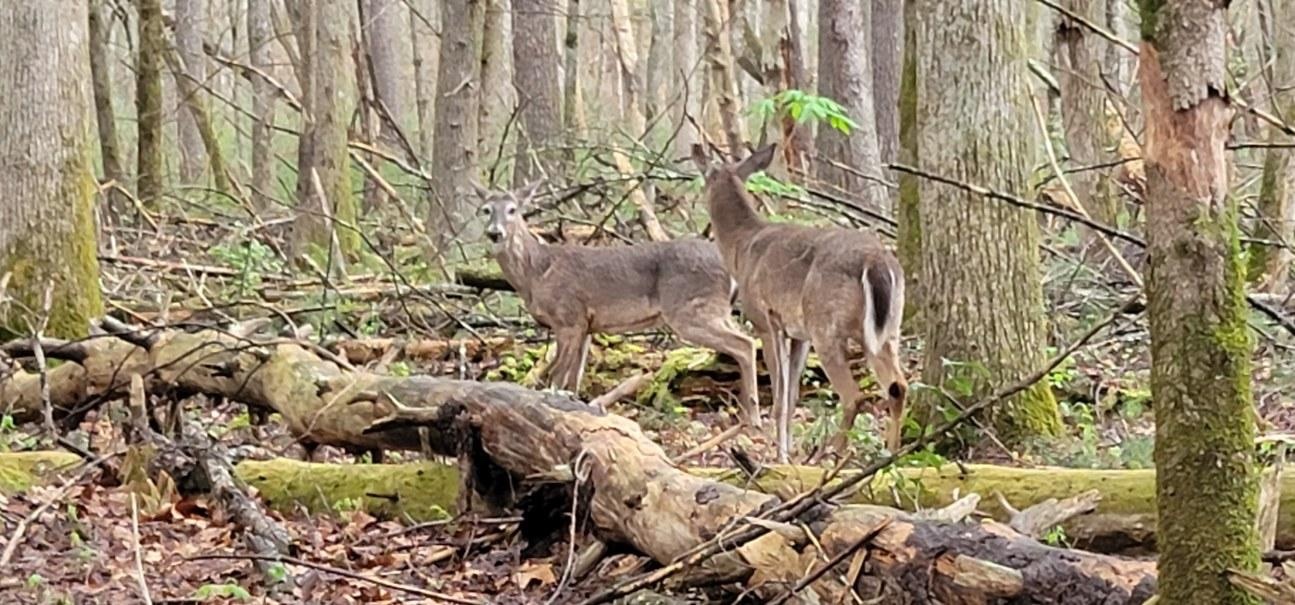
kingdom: Animalia
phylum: Chordata
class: Mammalia
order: Artiodactyla
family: Cervidae
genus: Odocoileus
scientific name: Odocoileus virginianus
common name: White-tailed deer
